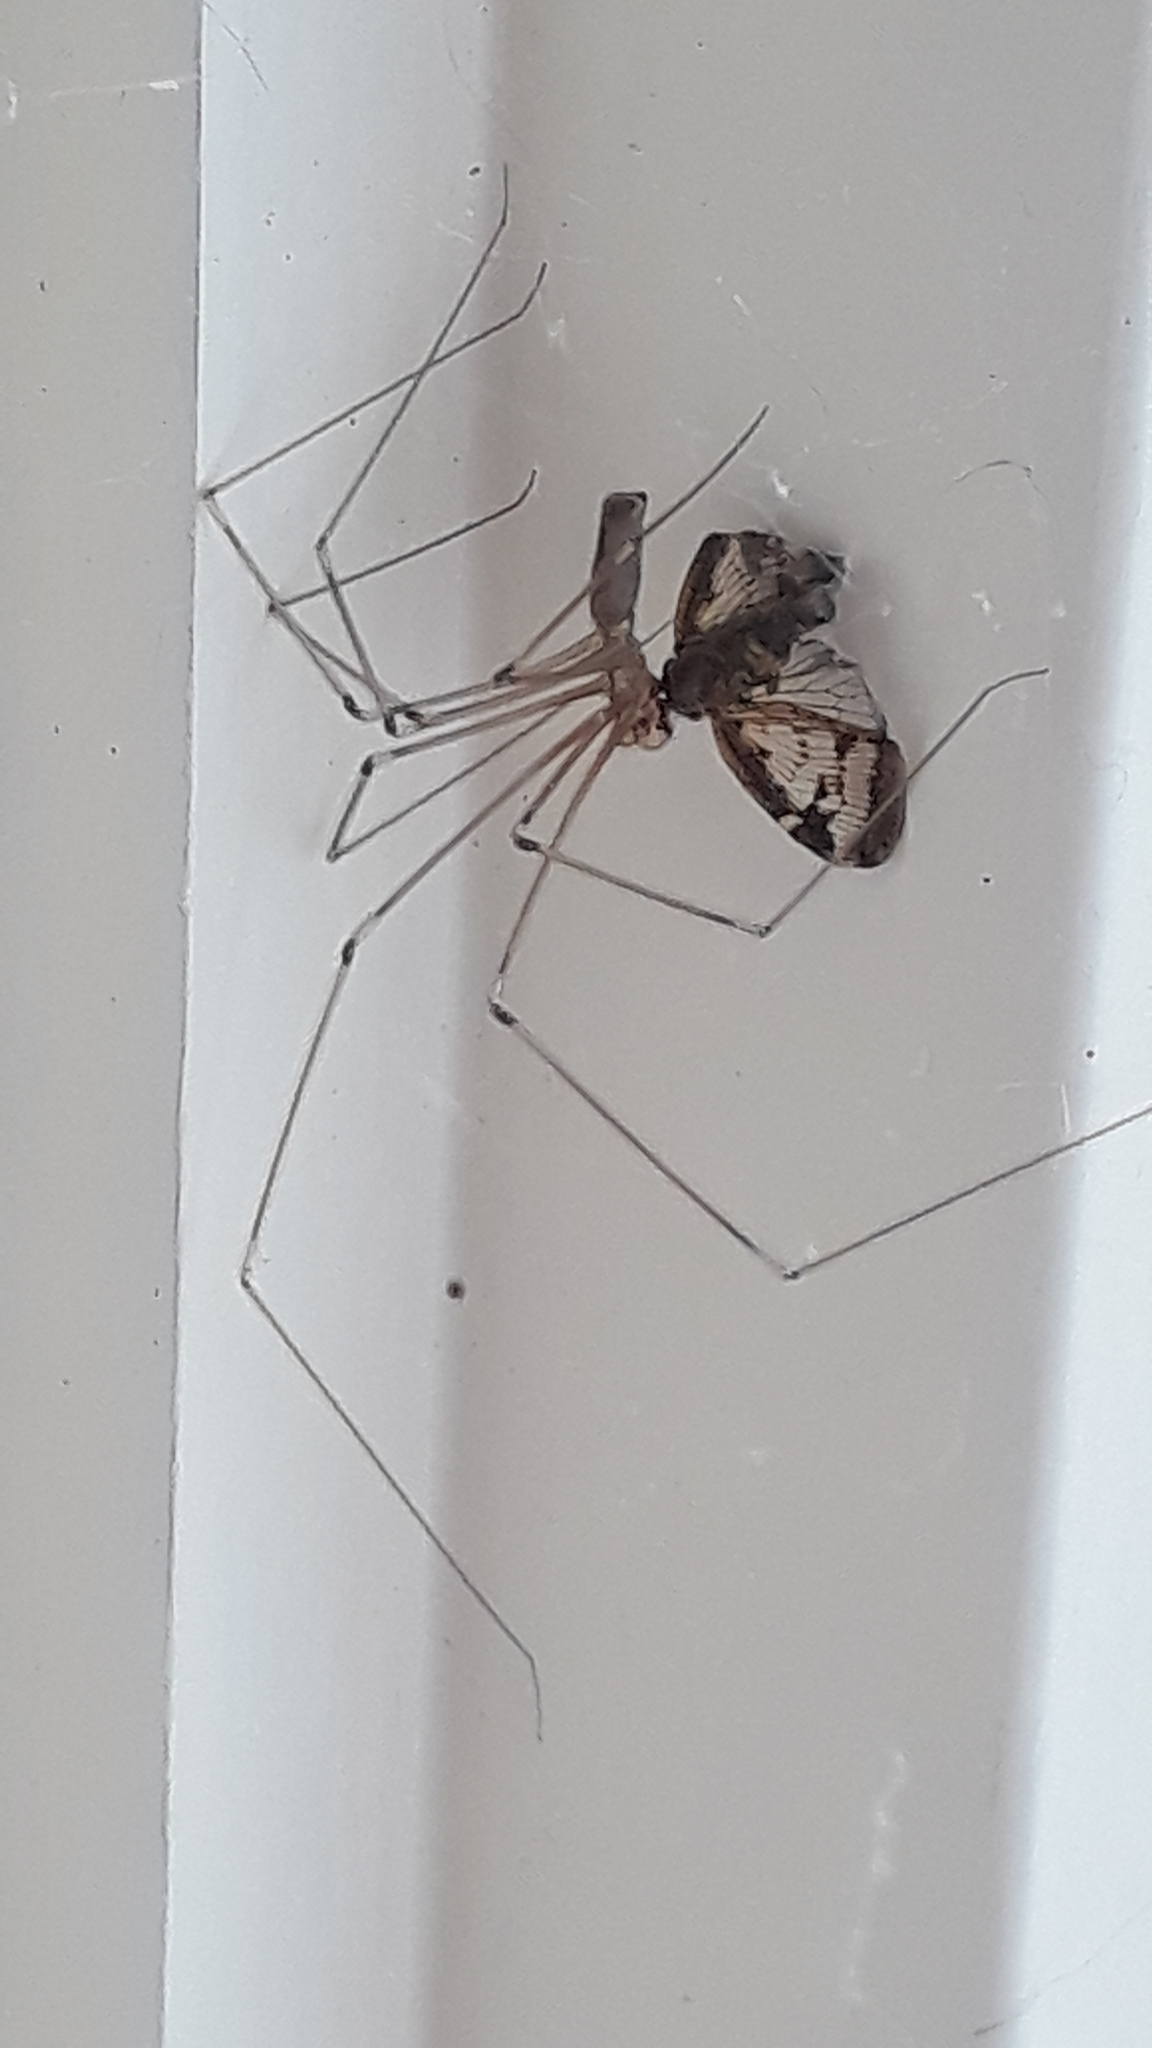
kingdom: Animalia
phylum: Arthropoda
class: Arachnida
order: Araneae
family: Pholcidae
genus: Pholcus
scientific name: Pholcus phalangioides
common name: Longbodied cellar spider
